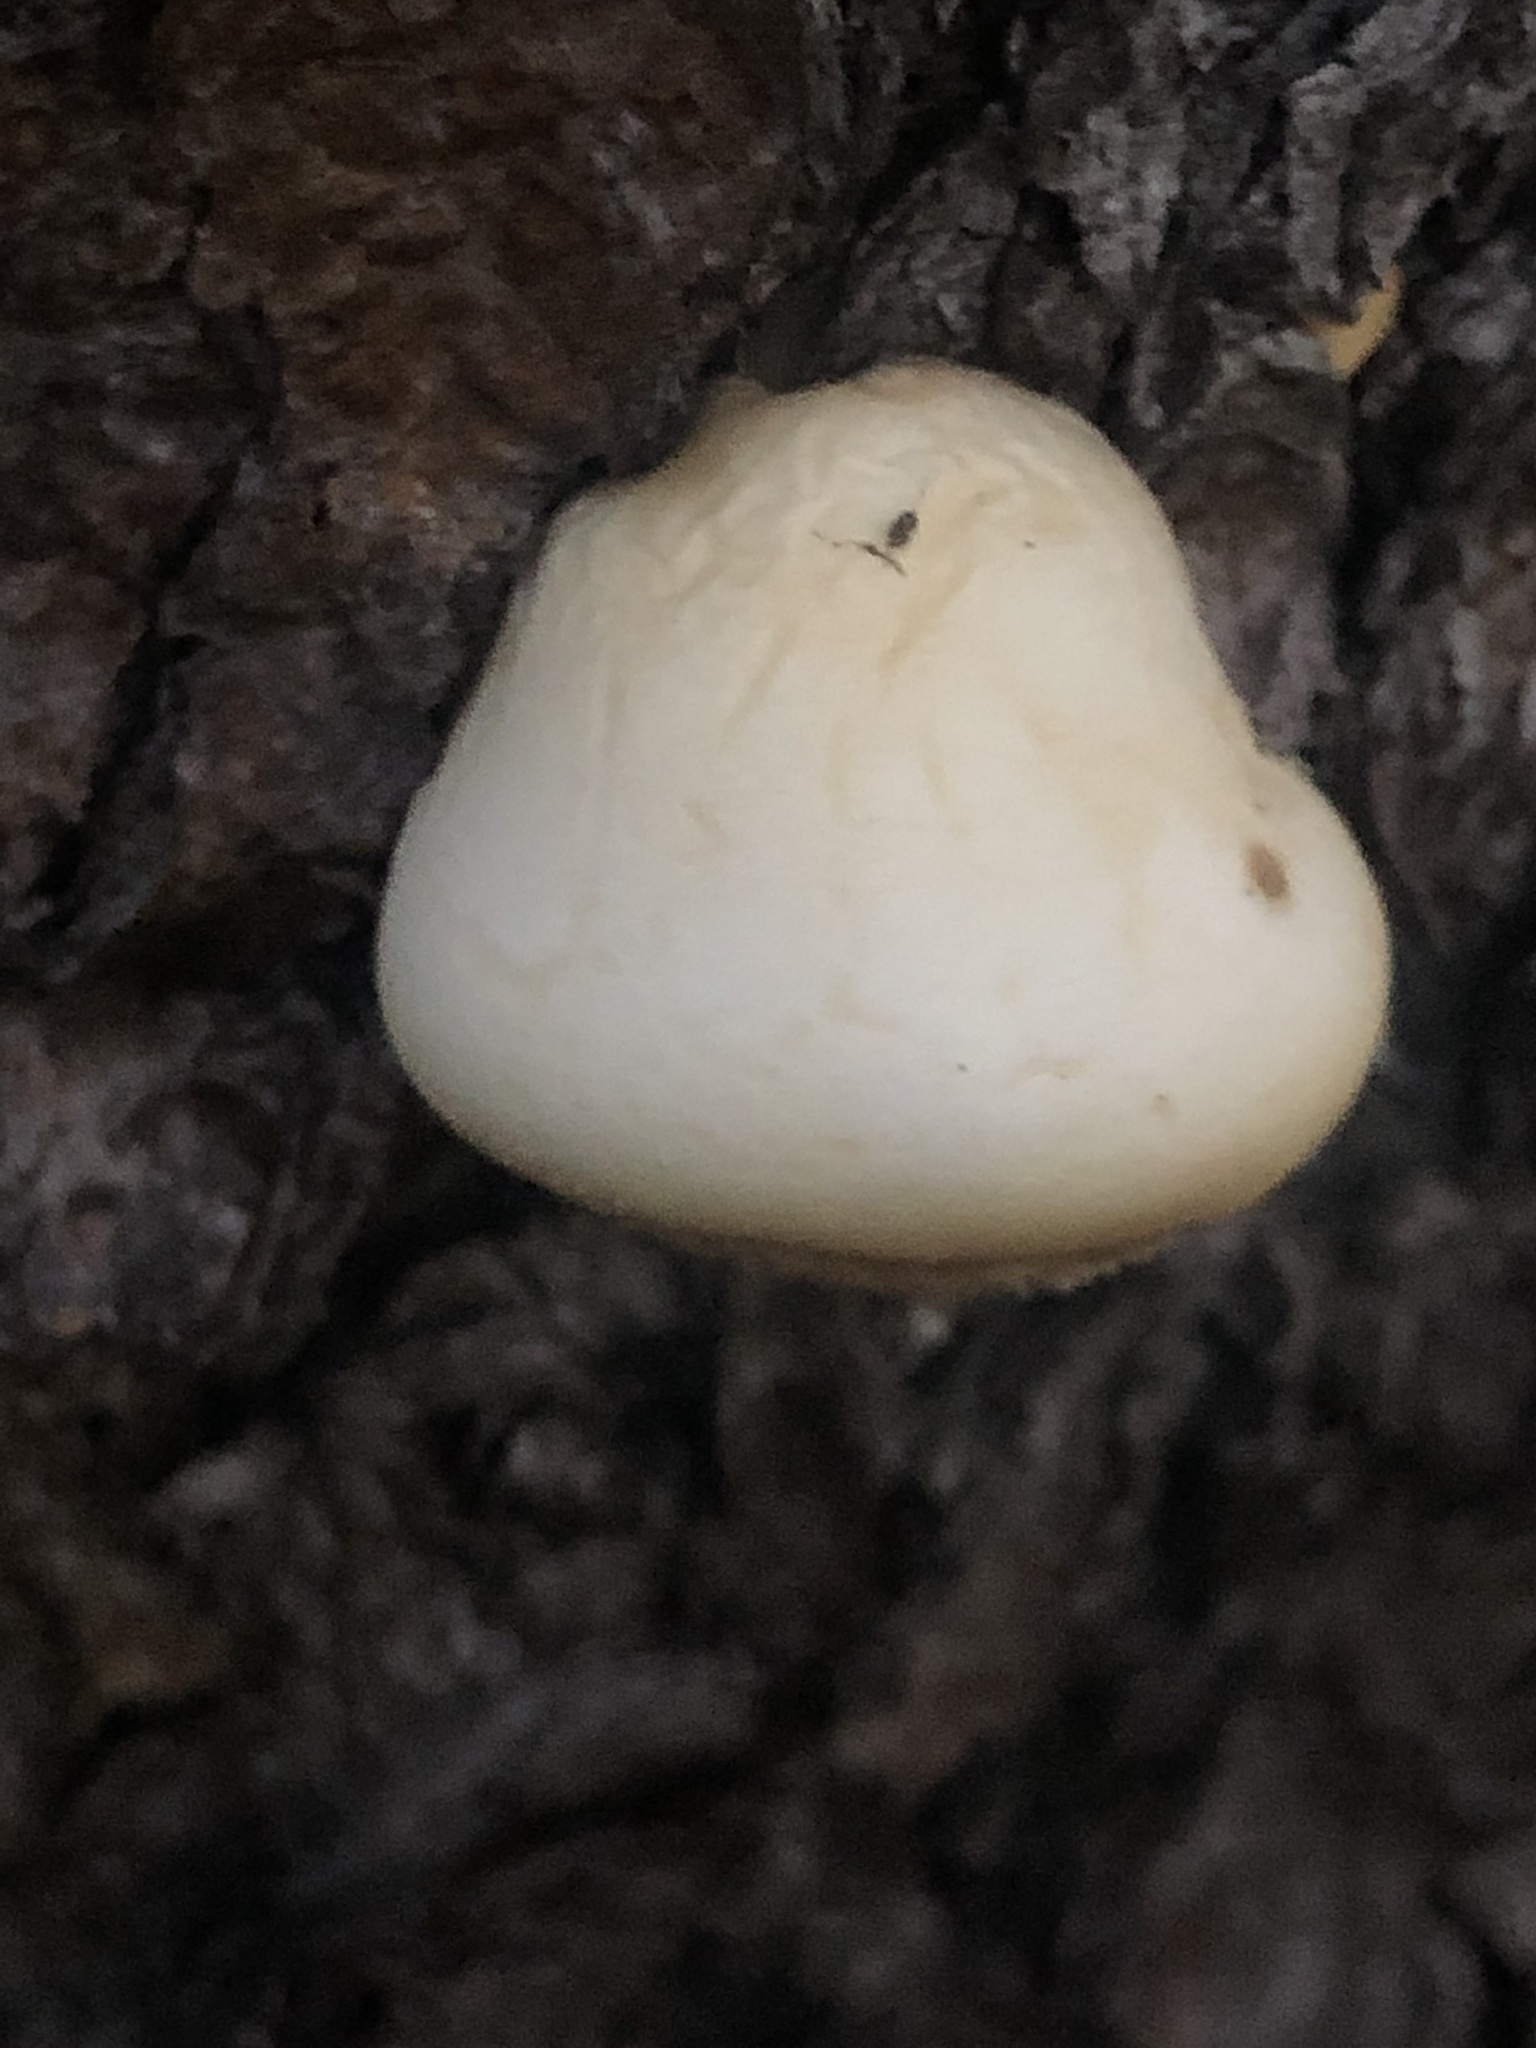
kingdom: Fungi
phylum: Basidiomycota
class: Agaricomycetes
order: Polyporales
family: Polyporaceae
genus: Cryptoporus
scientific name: Cryptoporus volvatus
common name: Veiled polypore
